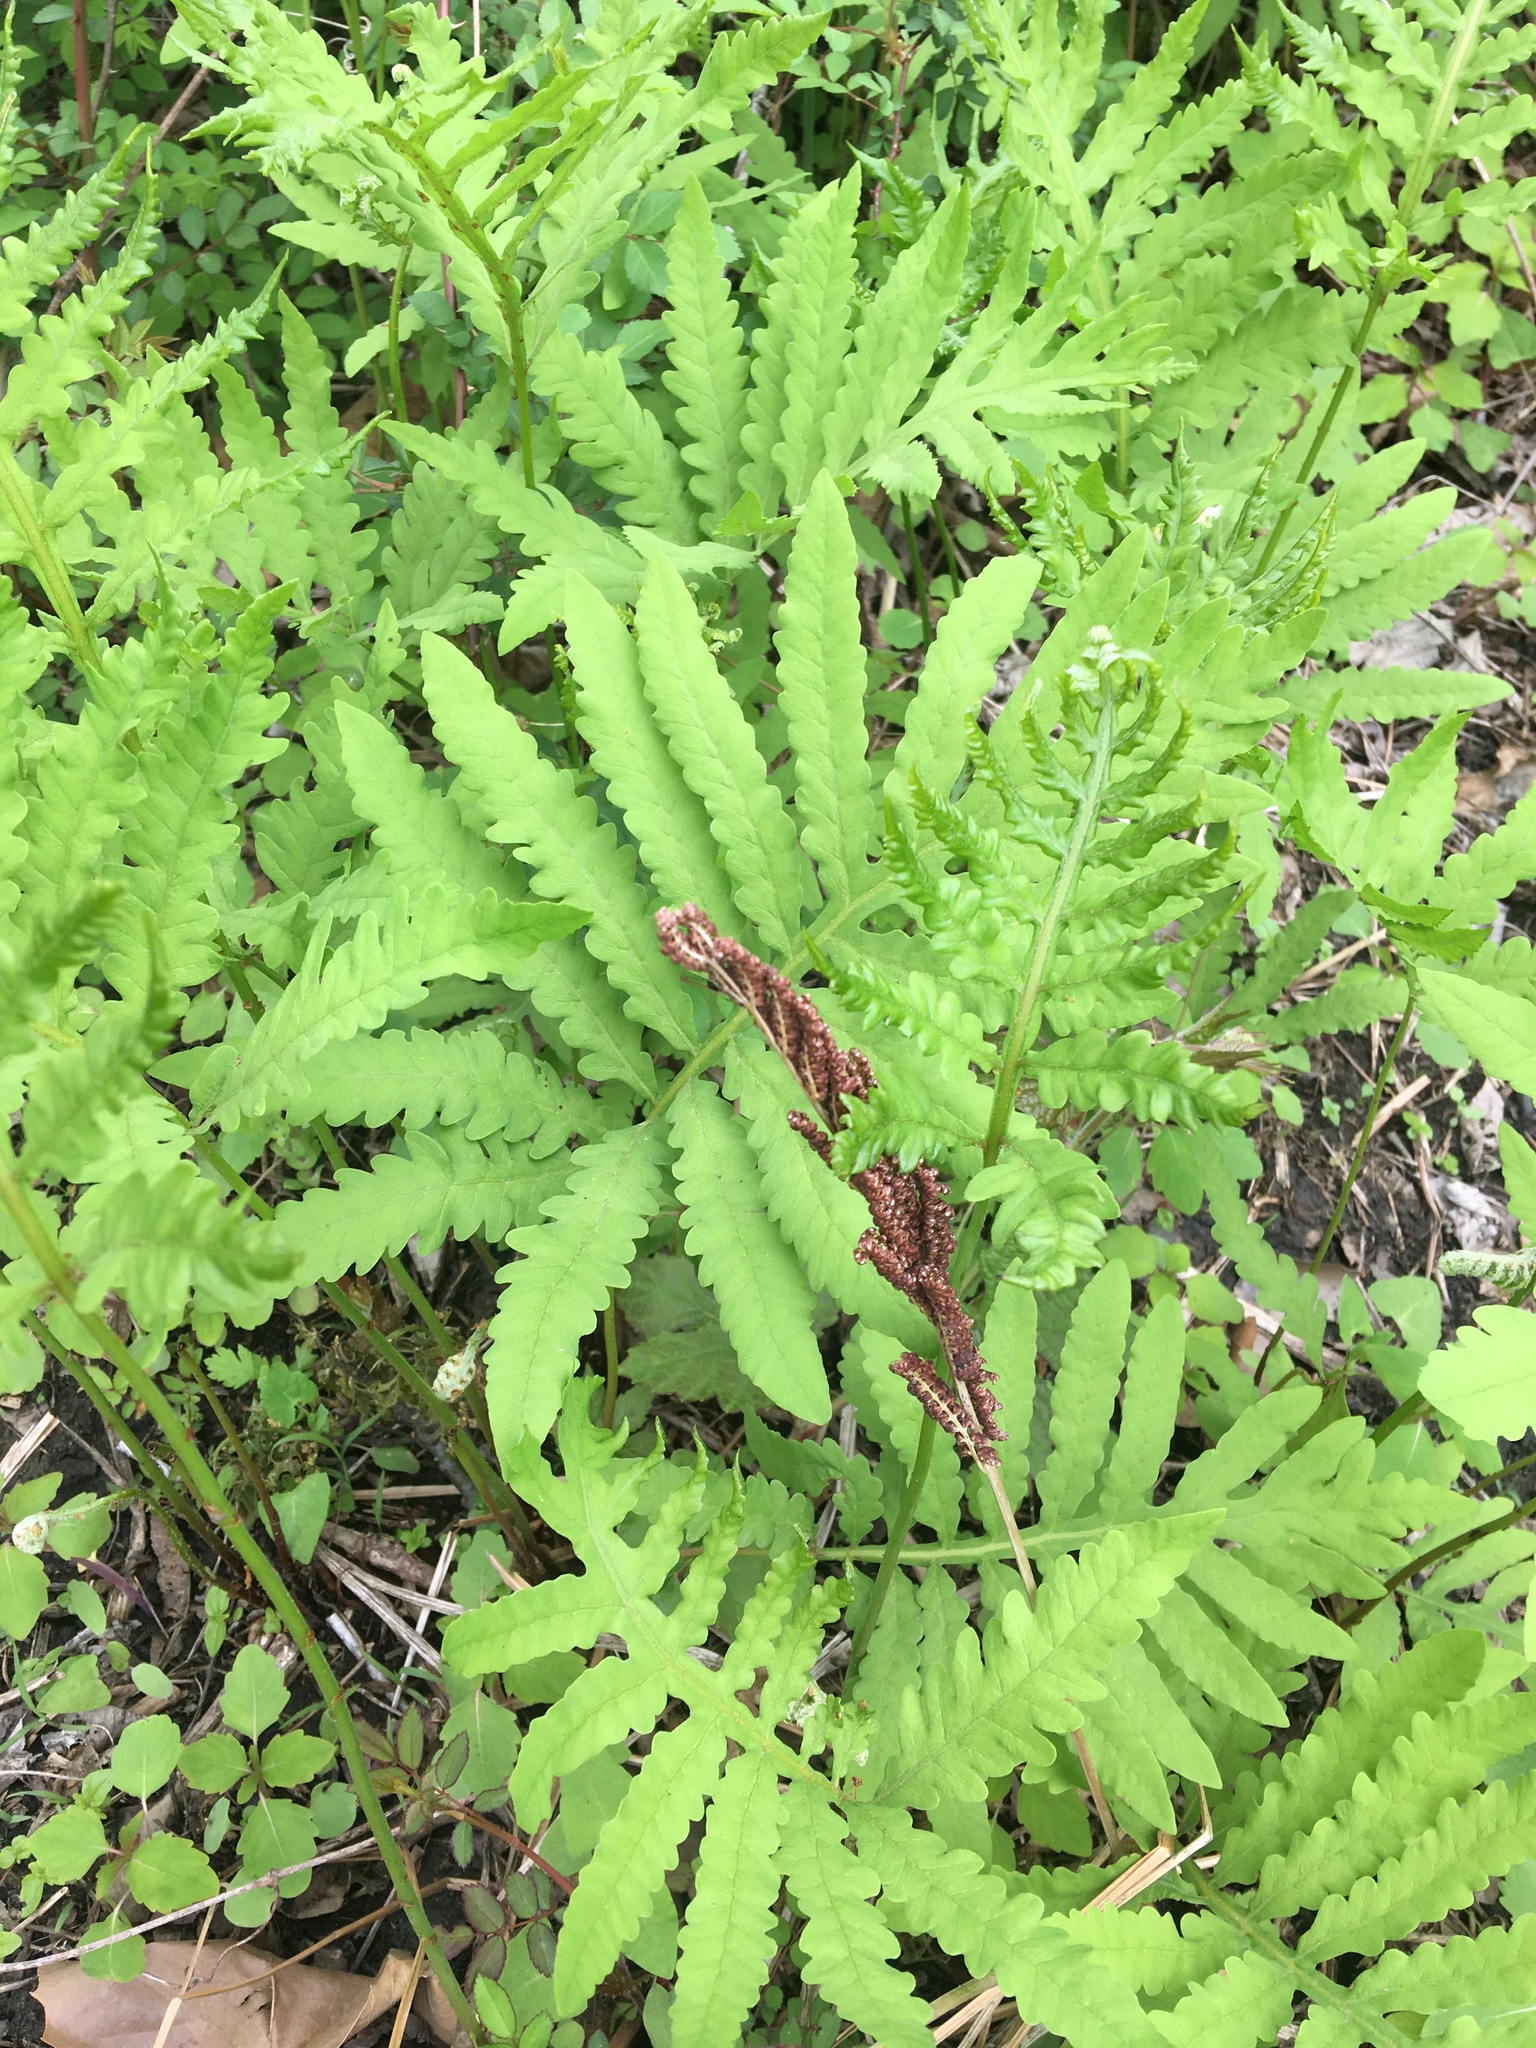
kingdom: Plantae
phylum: Tracheophyta
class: Polypodiopsida
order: Polypodiales
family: Onocleaceae
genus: Onoclea
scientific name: Onoclea sensibilis
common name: Sensitive fern
